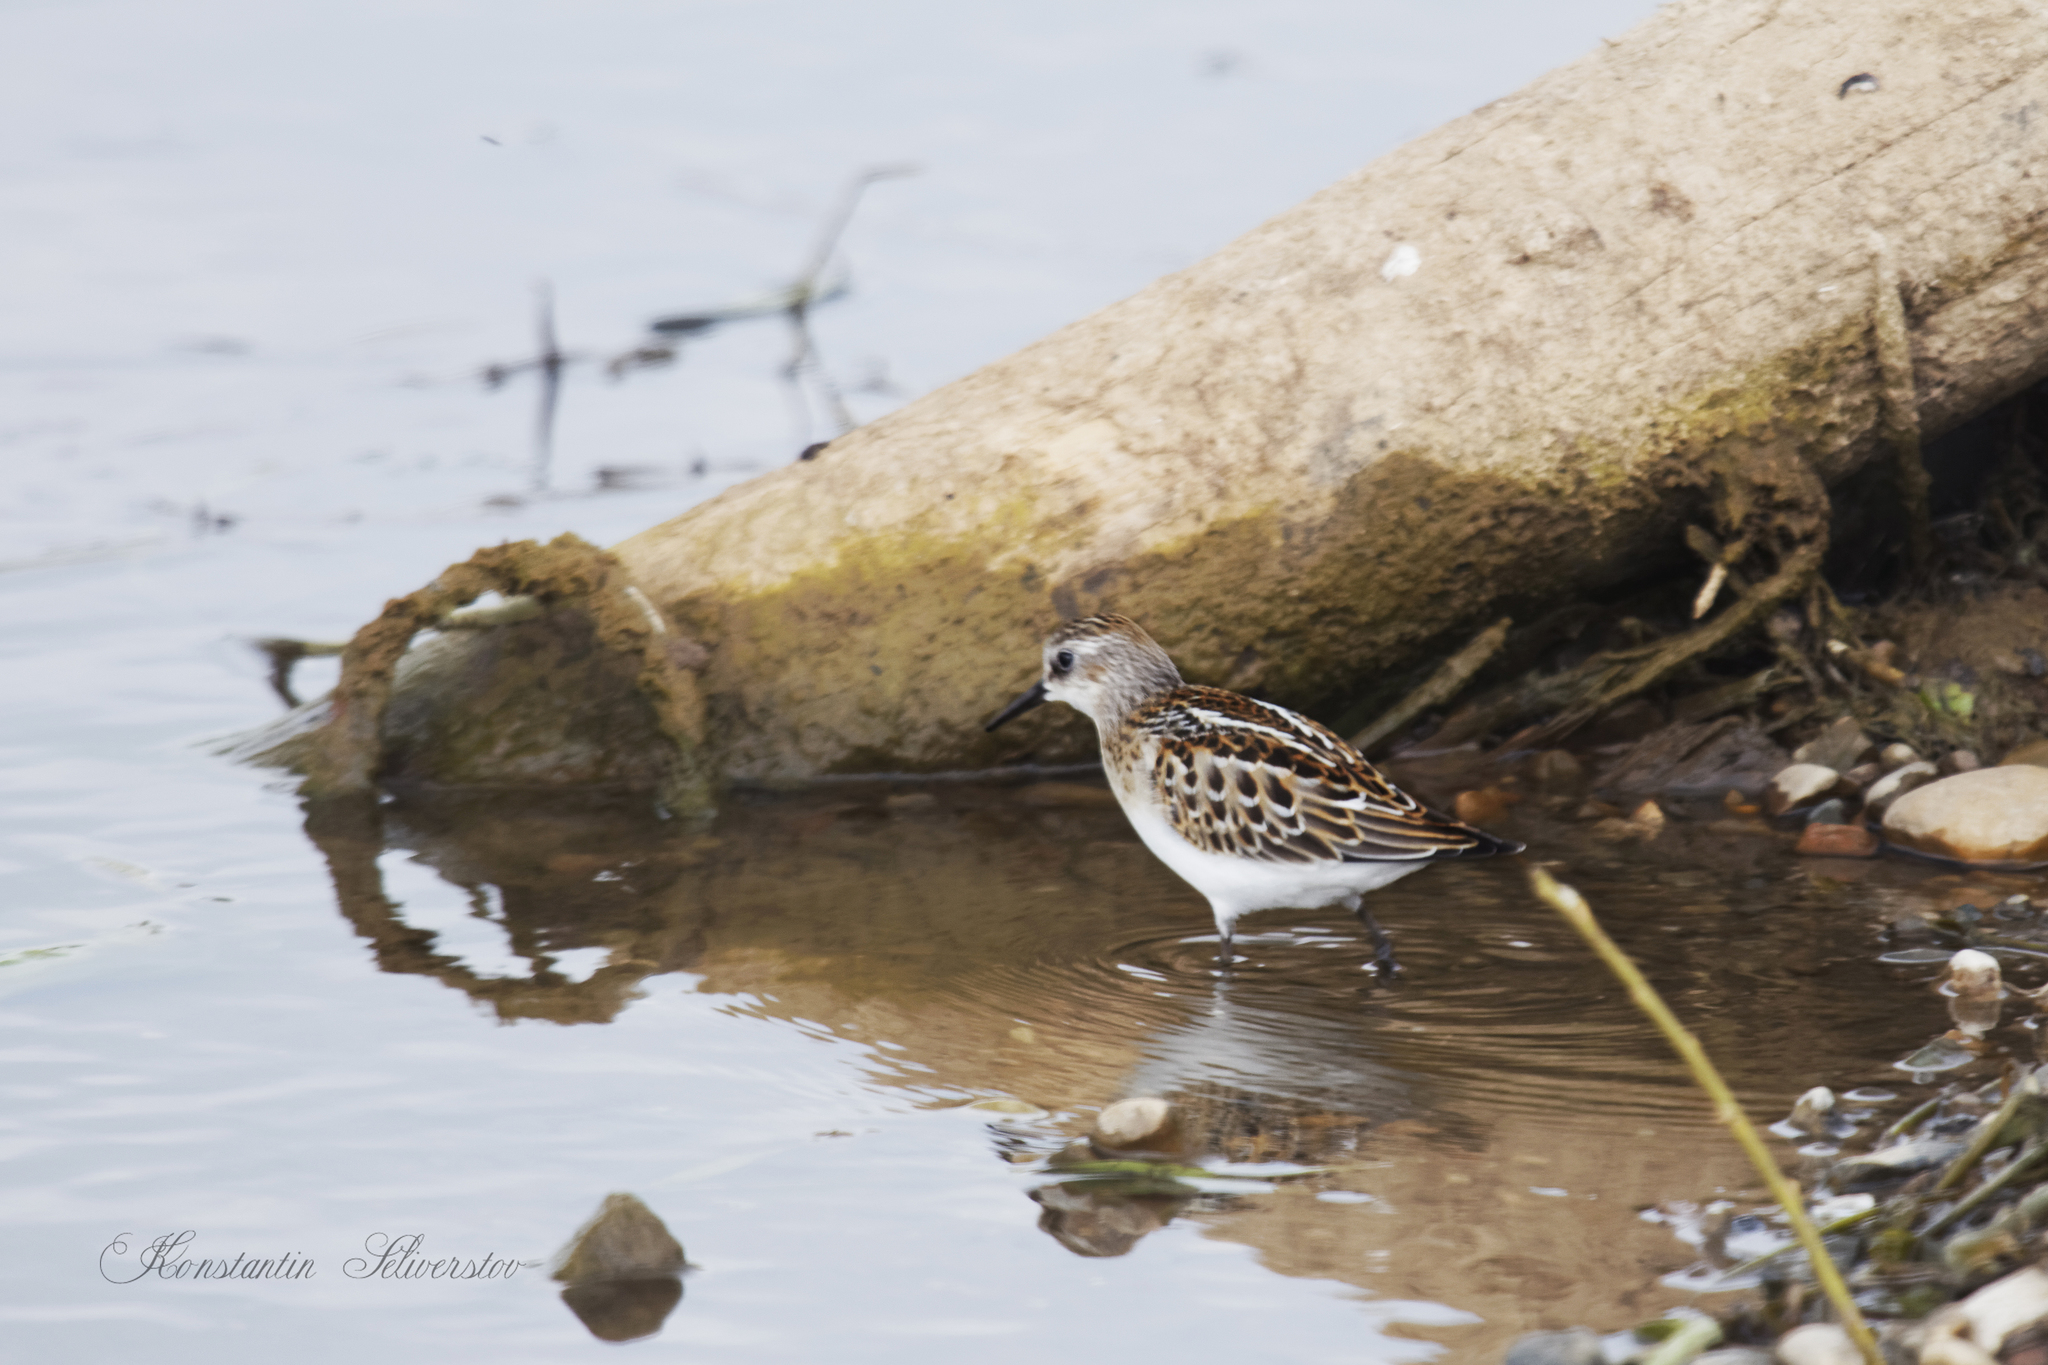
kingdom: Animalia
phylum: Chordata
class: Aves
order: Charadriiformes
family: Scolopacidae
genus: Calidris
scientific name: Calidris minuta
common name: Little stint
